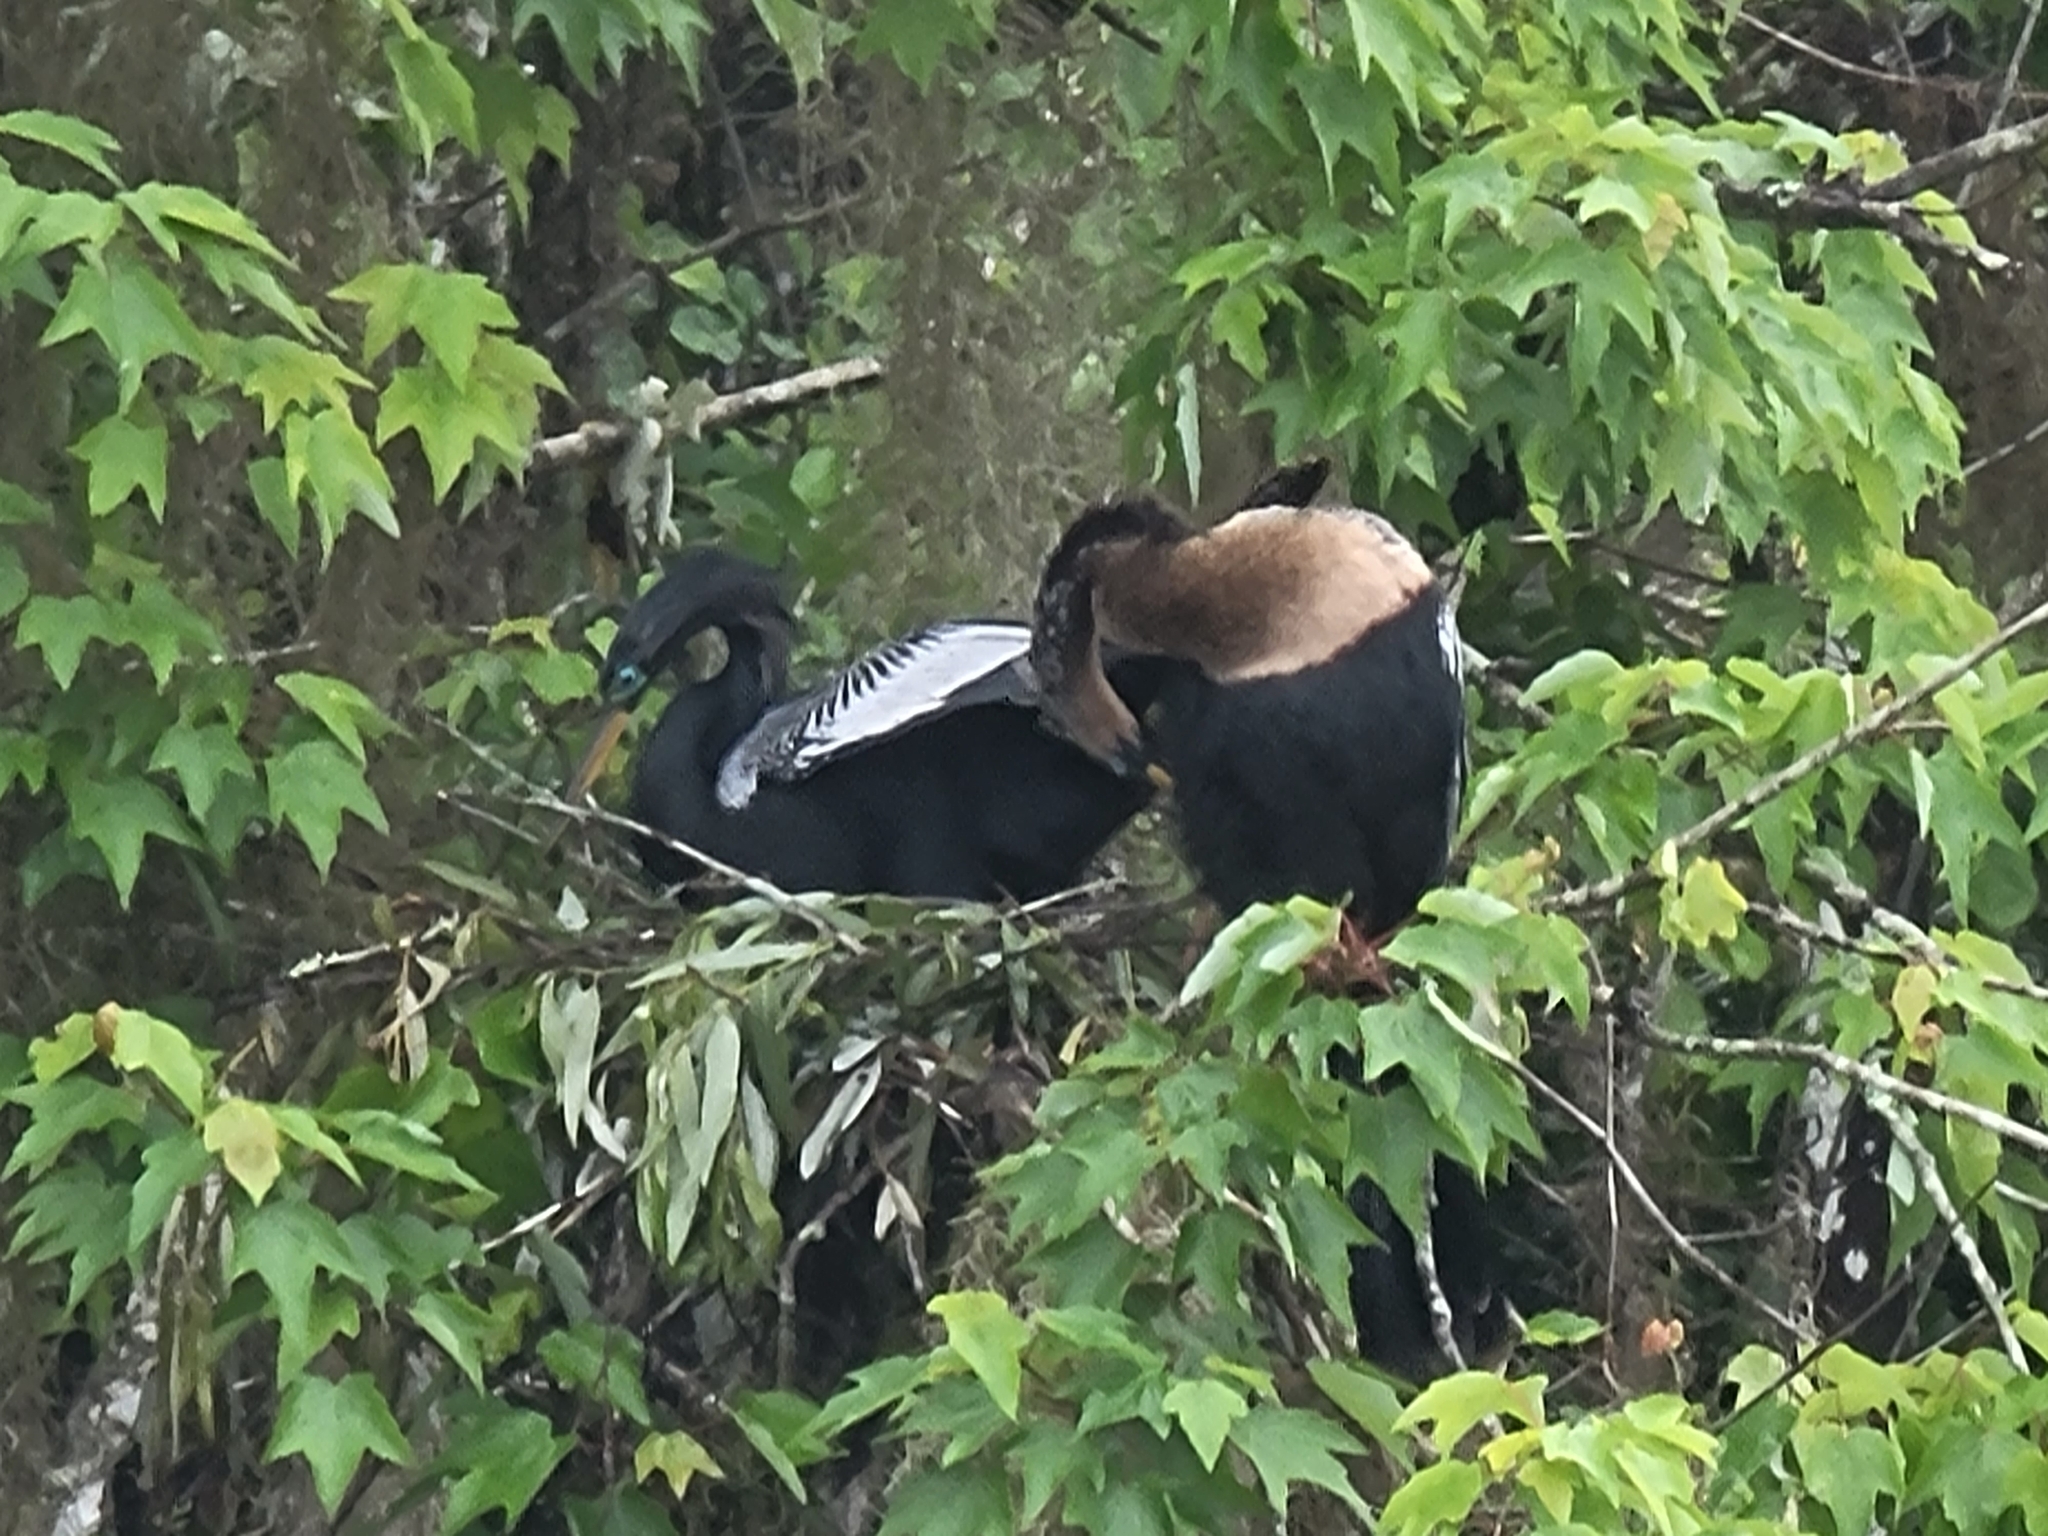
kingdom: Animalia
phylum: Chordata
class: Aves
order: Suliformes
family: Anhingidae
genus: Anhinga
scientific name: Anhinga anhinga
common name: Anhinga
